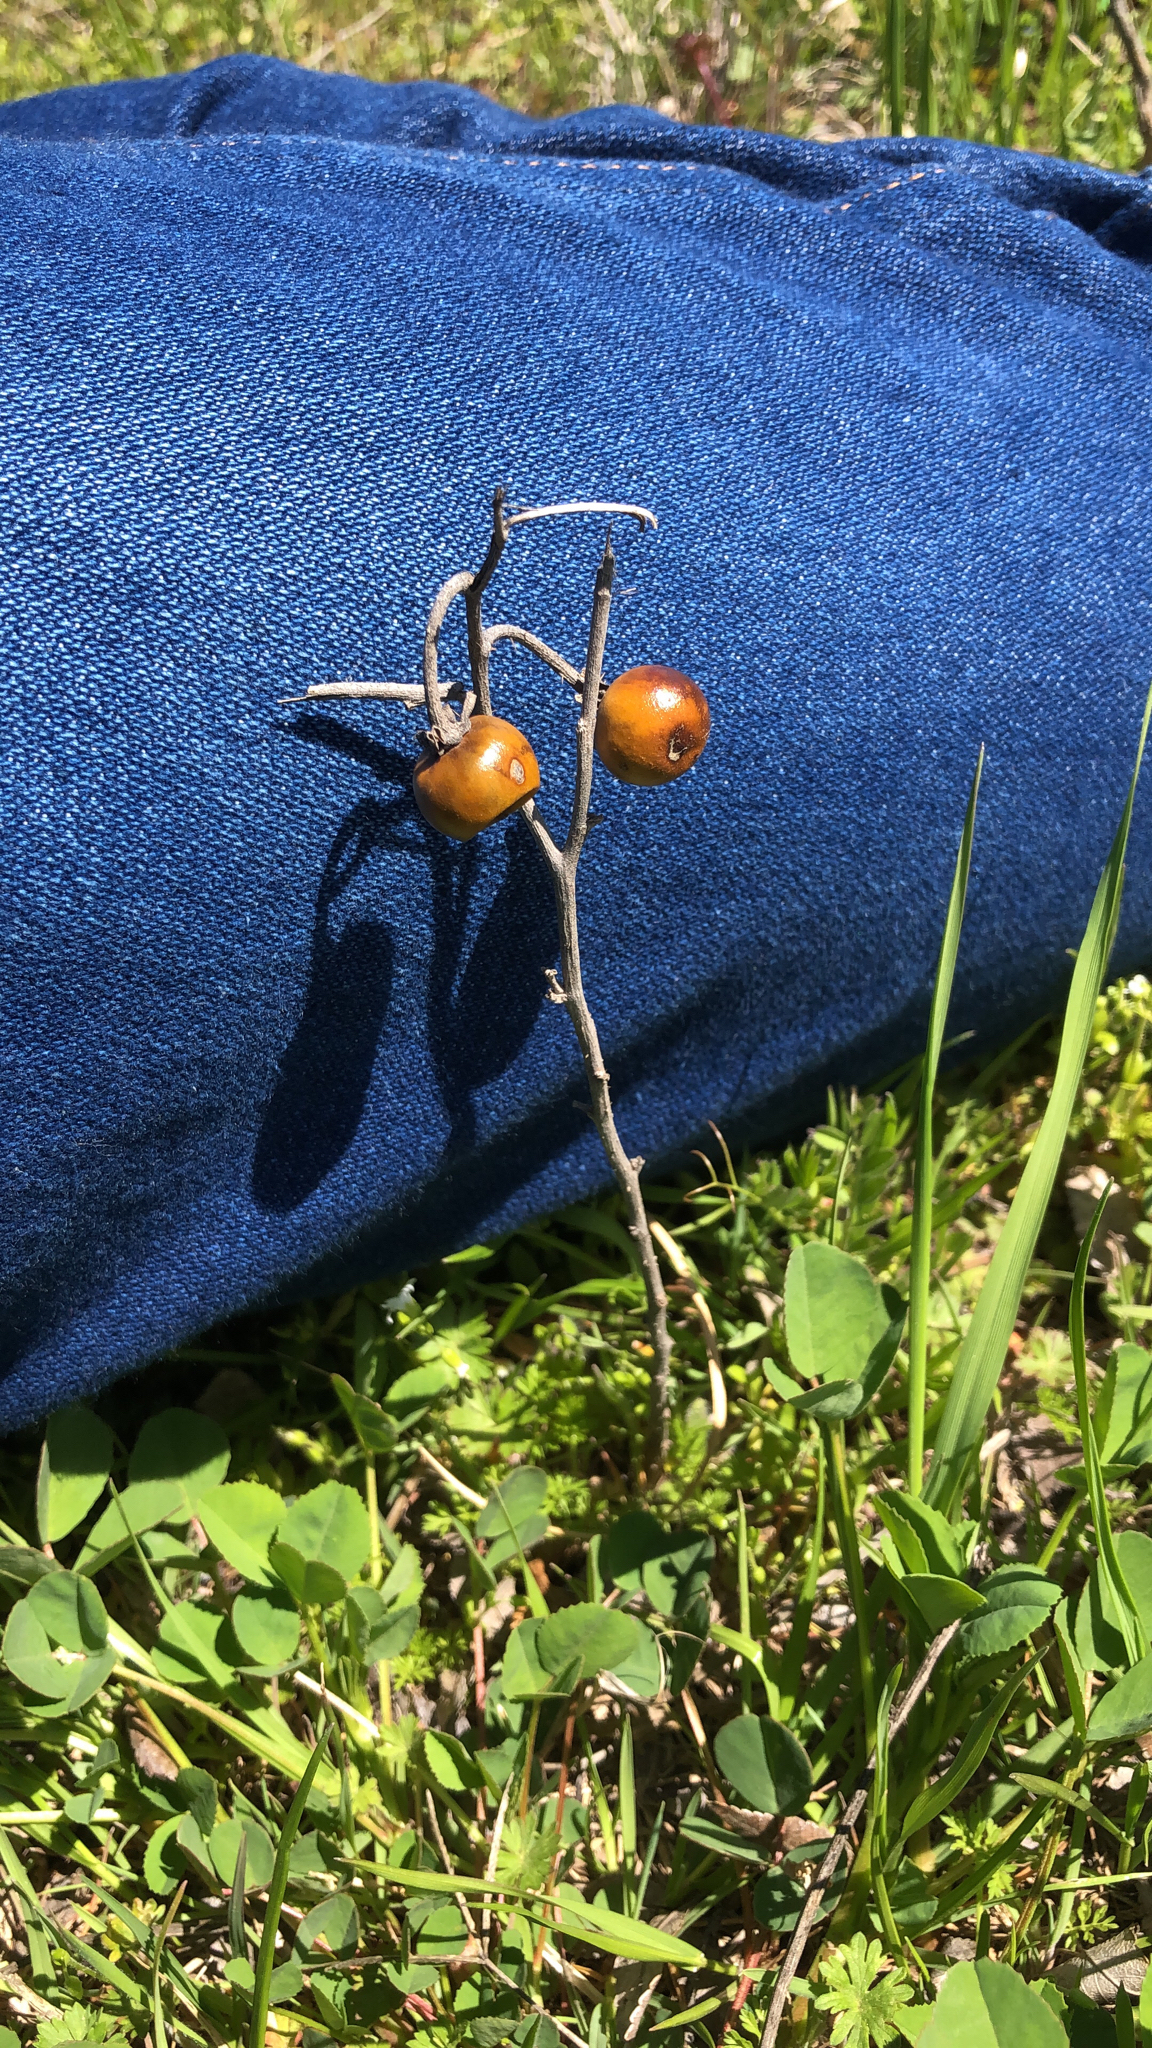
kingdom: Plantae
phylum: Tracheophyta
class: Magnoliopsida
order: Solanales
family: Solanaceae
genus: Solanum
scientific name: Solanum elaeagnifolium
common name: Silverleaf nightshade
